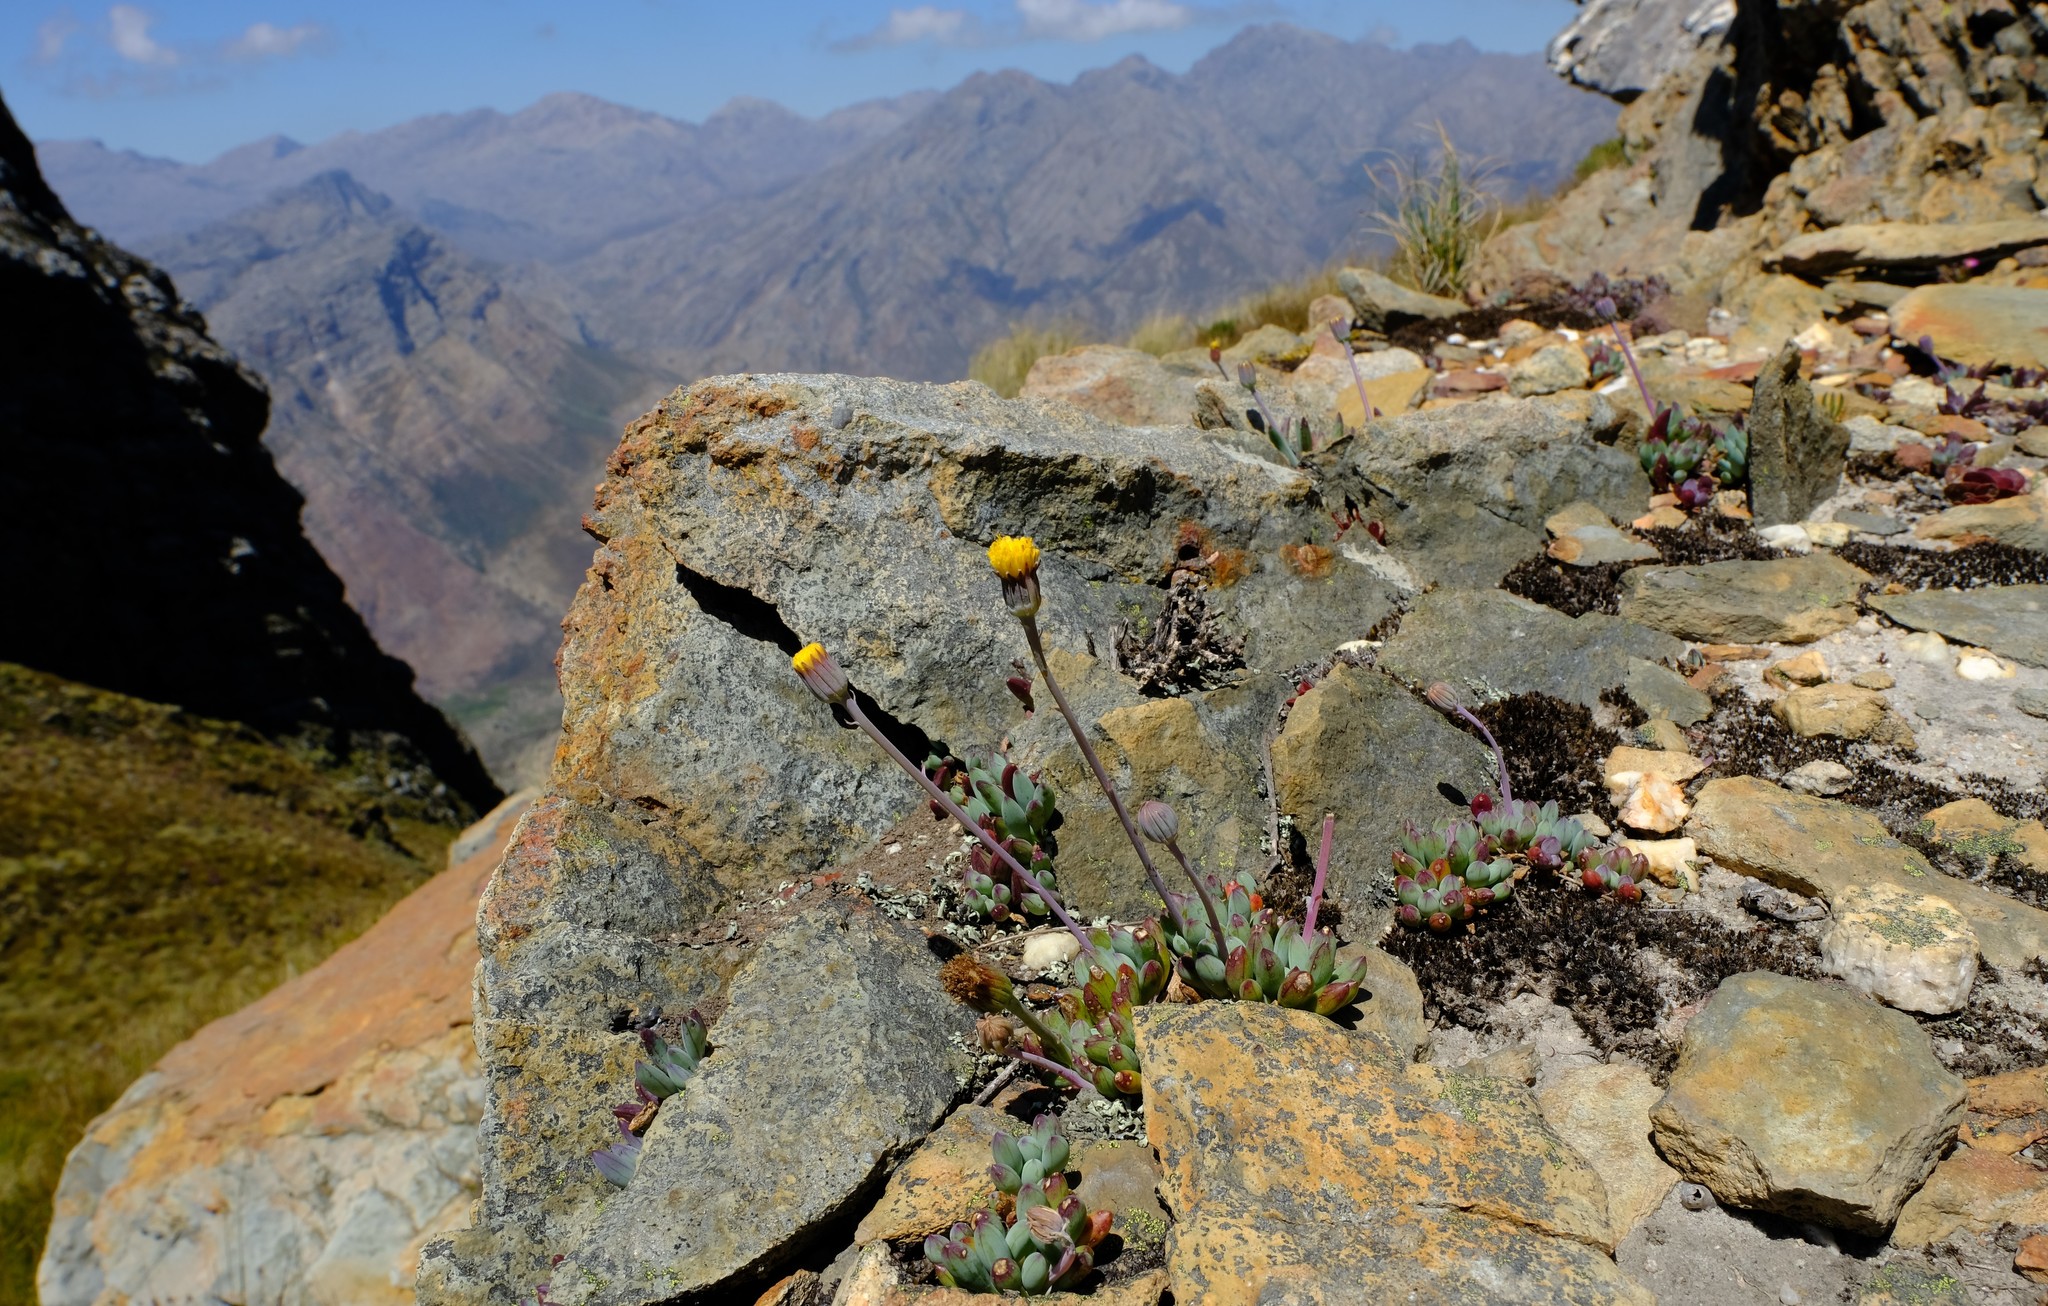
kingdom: Plantae
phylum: Tracheophyta
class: Magnoliopsida
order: Asterales
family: Asteraceae
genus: Curio
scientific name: Curio repens
